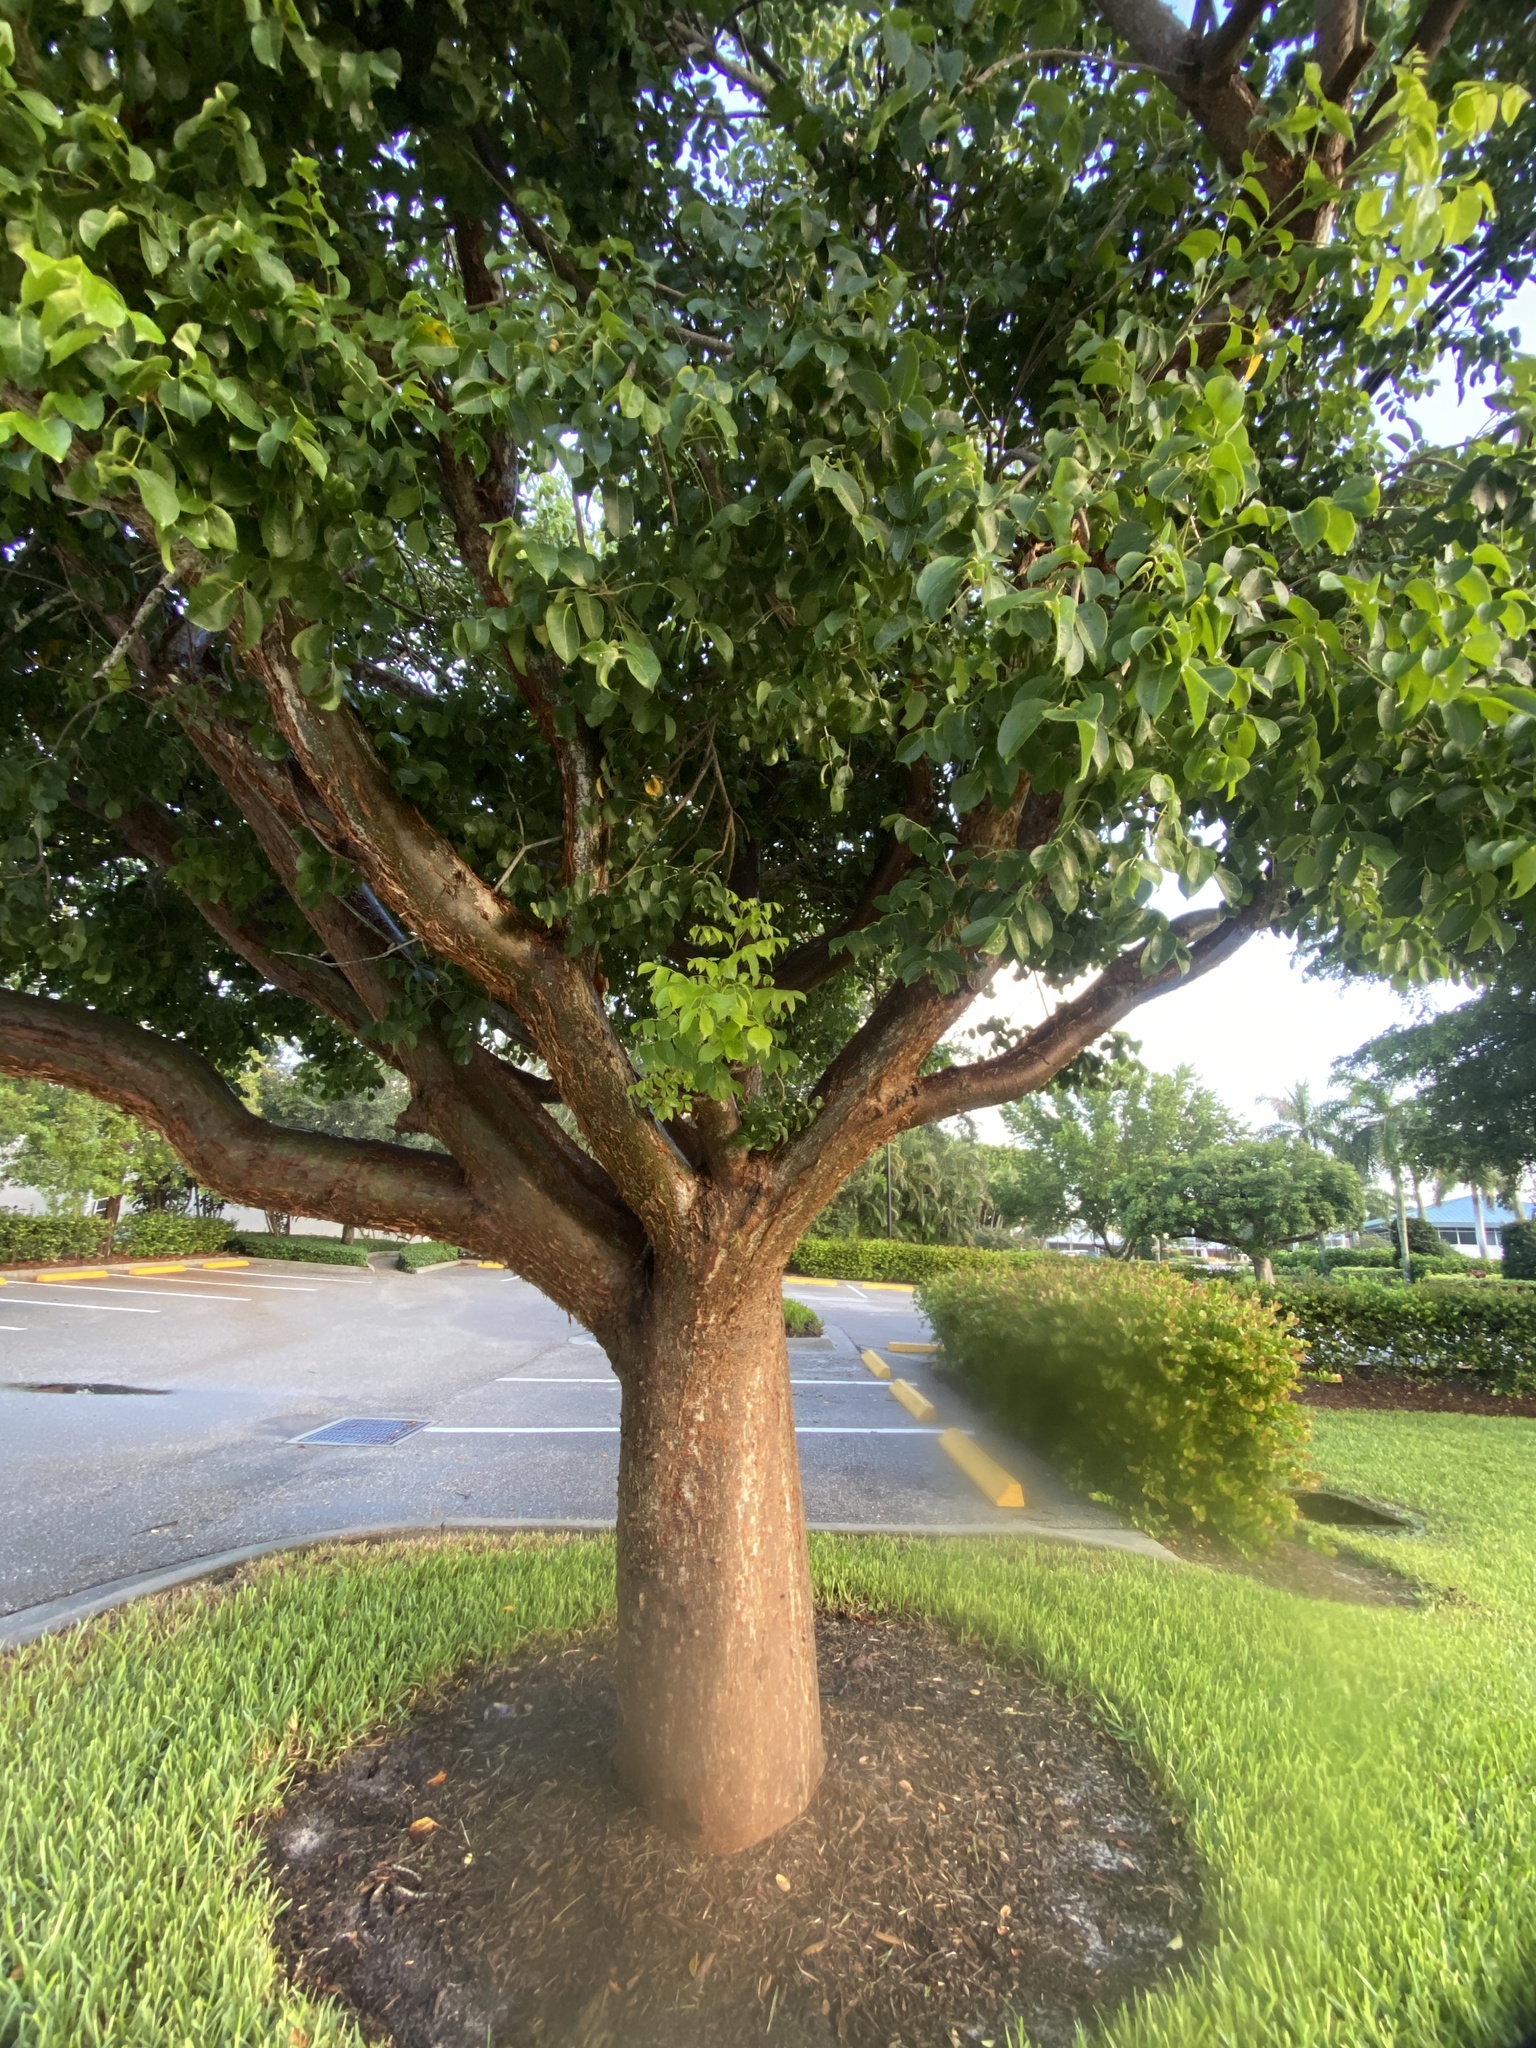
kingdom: Plantae
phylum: Tracheophyta
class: Magnoliopsida
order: Sapindales
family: Burseraceae
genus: Bursera
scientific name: Bursera simaruba
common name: Turpentine tree
